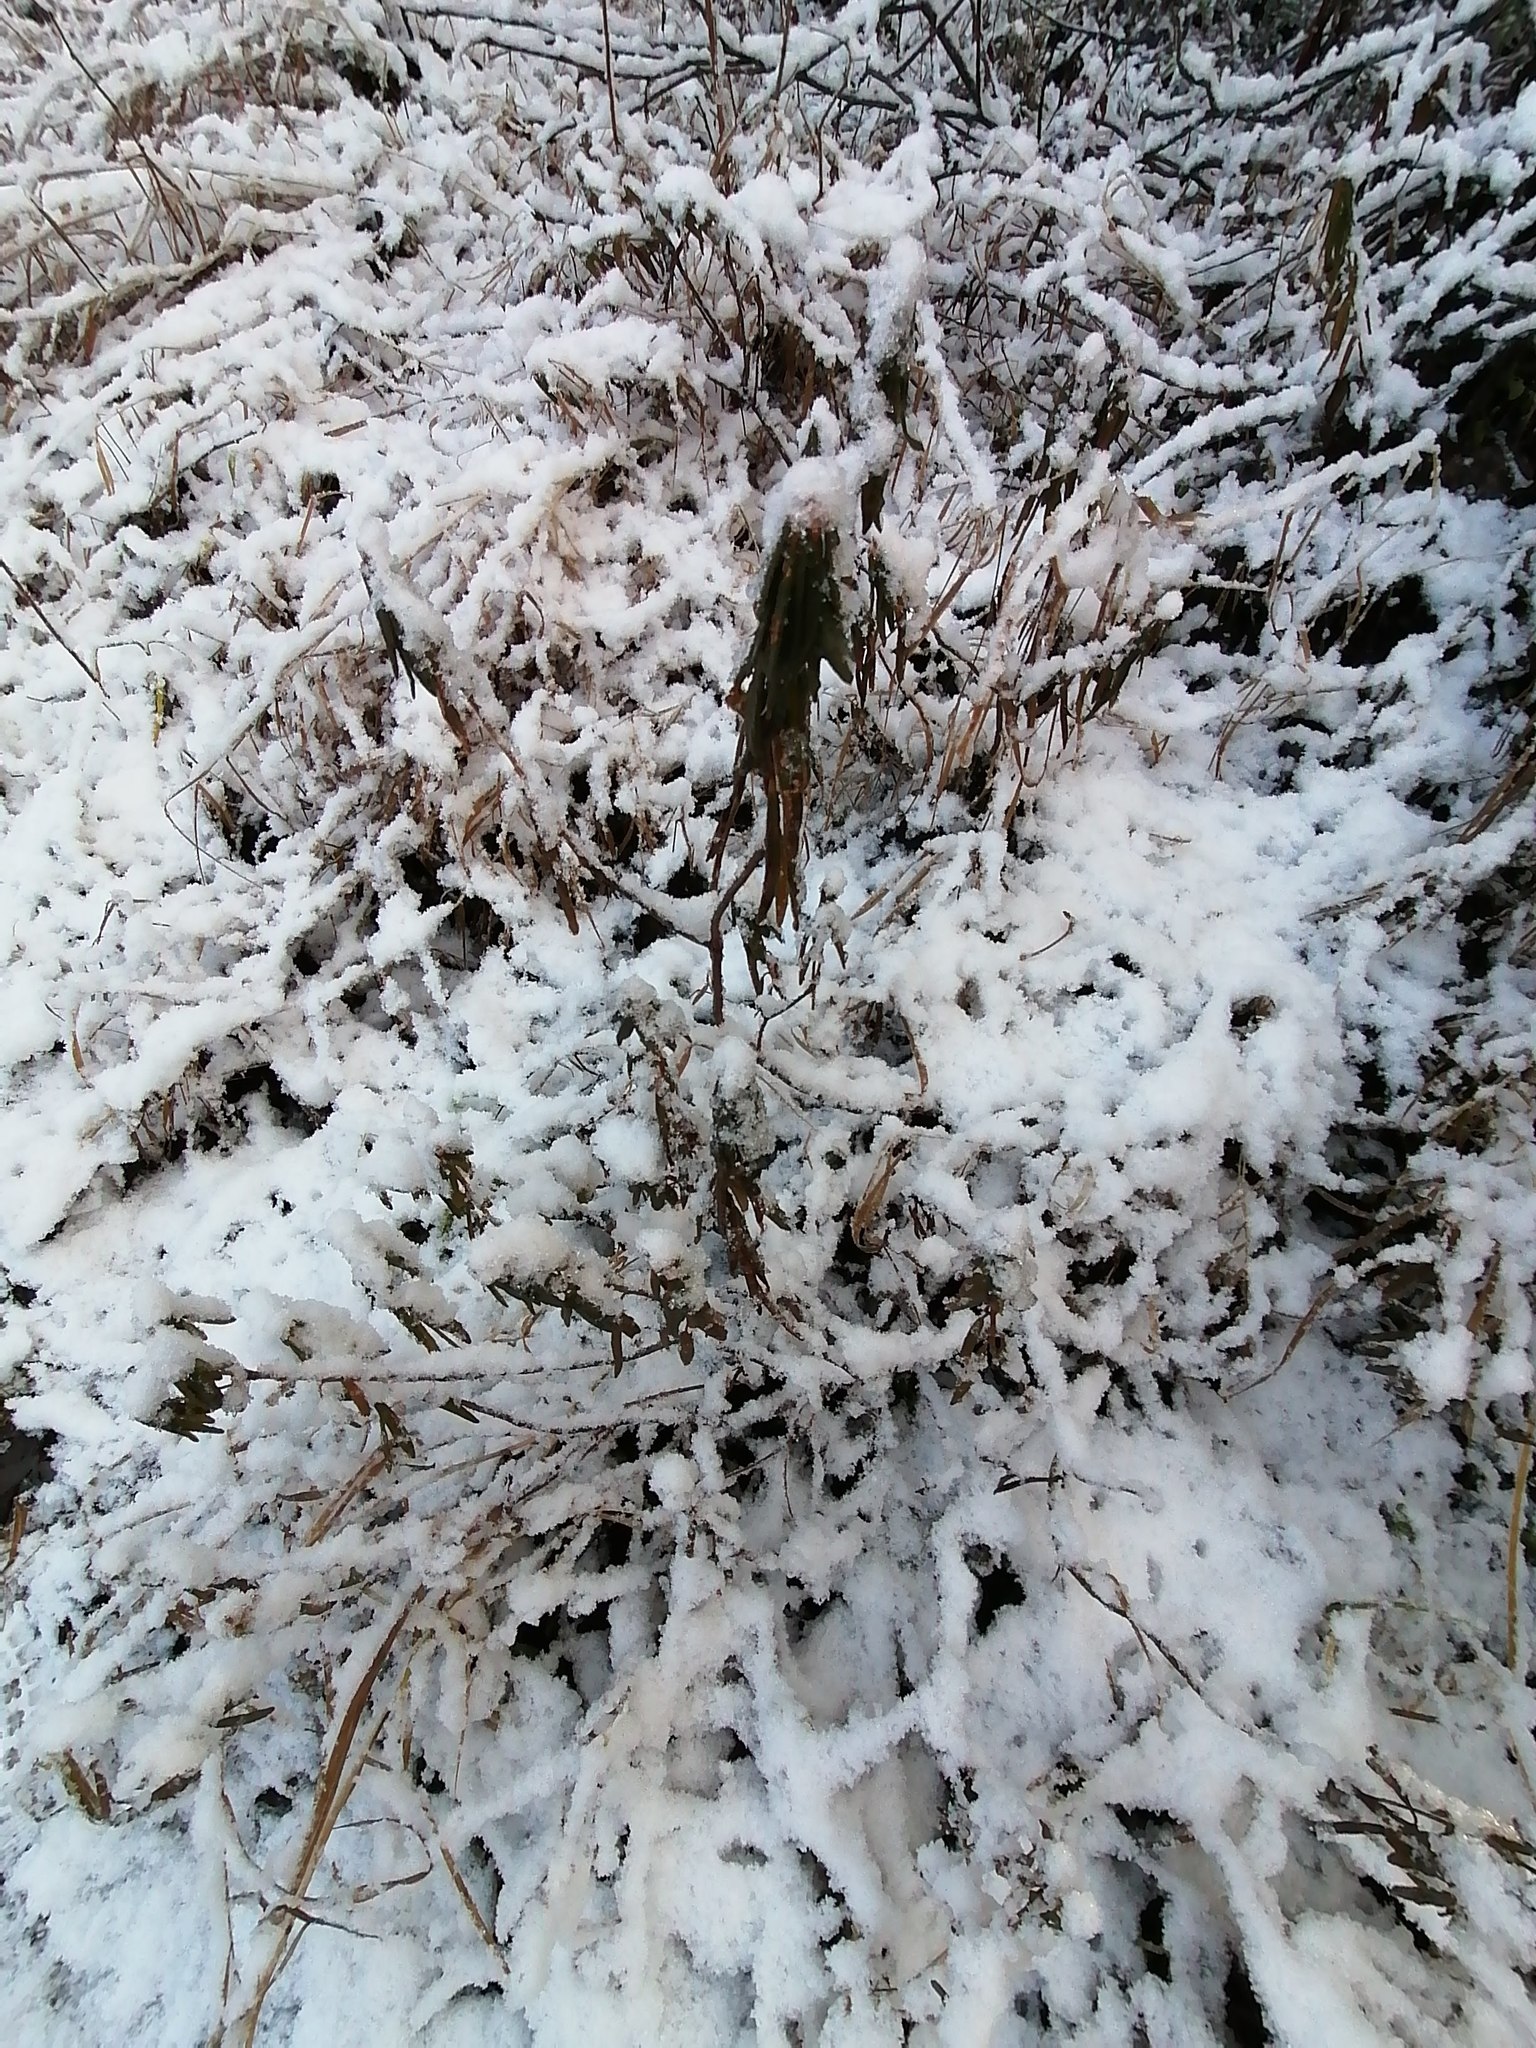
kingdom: Plantae
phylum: Tracheophyta
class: Magnoliopsida
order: Ericales
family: Ericaceae
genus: Rhododendron
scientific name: Rhododendron tomentosum
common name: Marsh labrador tea
